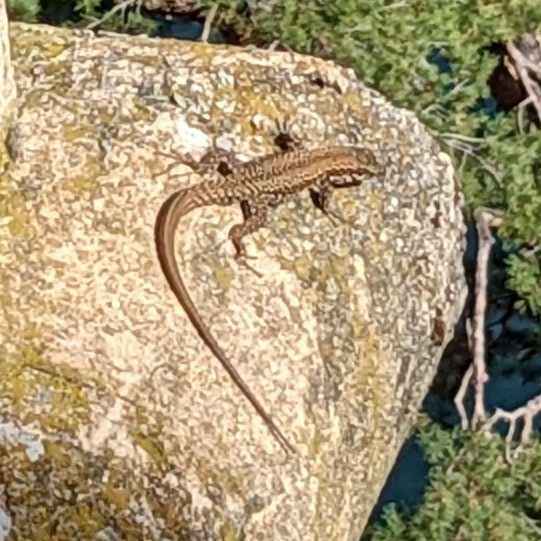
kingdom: Animalia
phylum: Chordata
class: Squamata
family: Lacertidae
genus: Podarcis
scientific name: Podarcis muralis
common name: Common wall lizard
